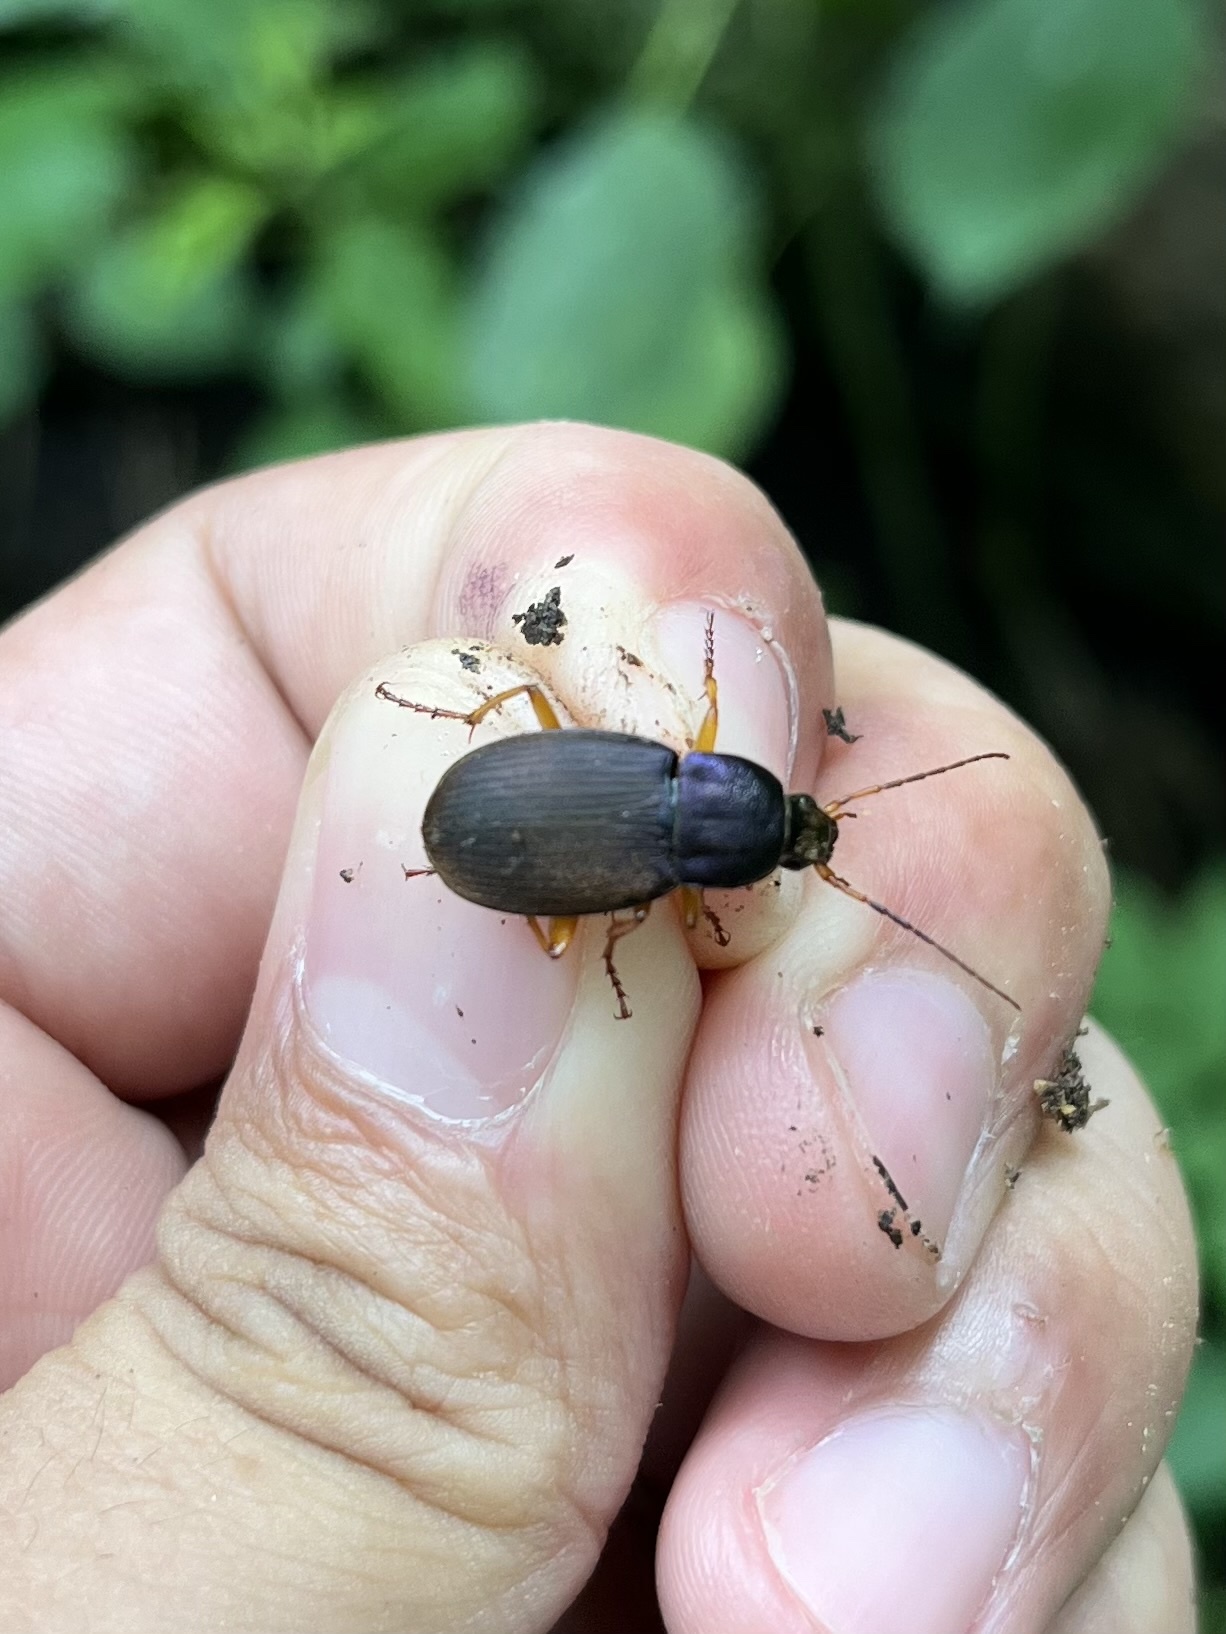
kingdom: Animalia
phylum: Arthropoda
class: Insecta
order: Coleoptera
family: Carabidae
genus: Chlaenius
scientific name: Chlaenius laticollis
